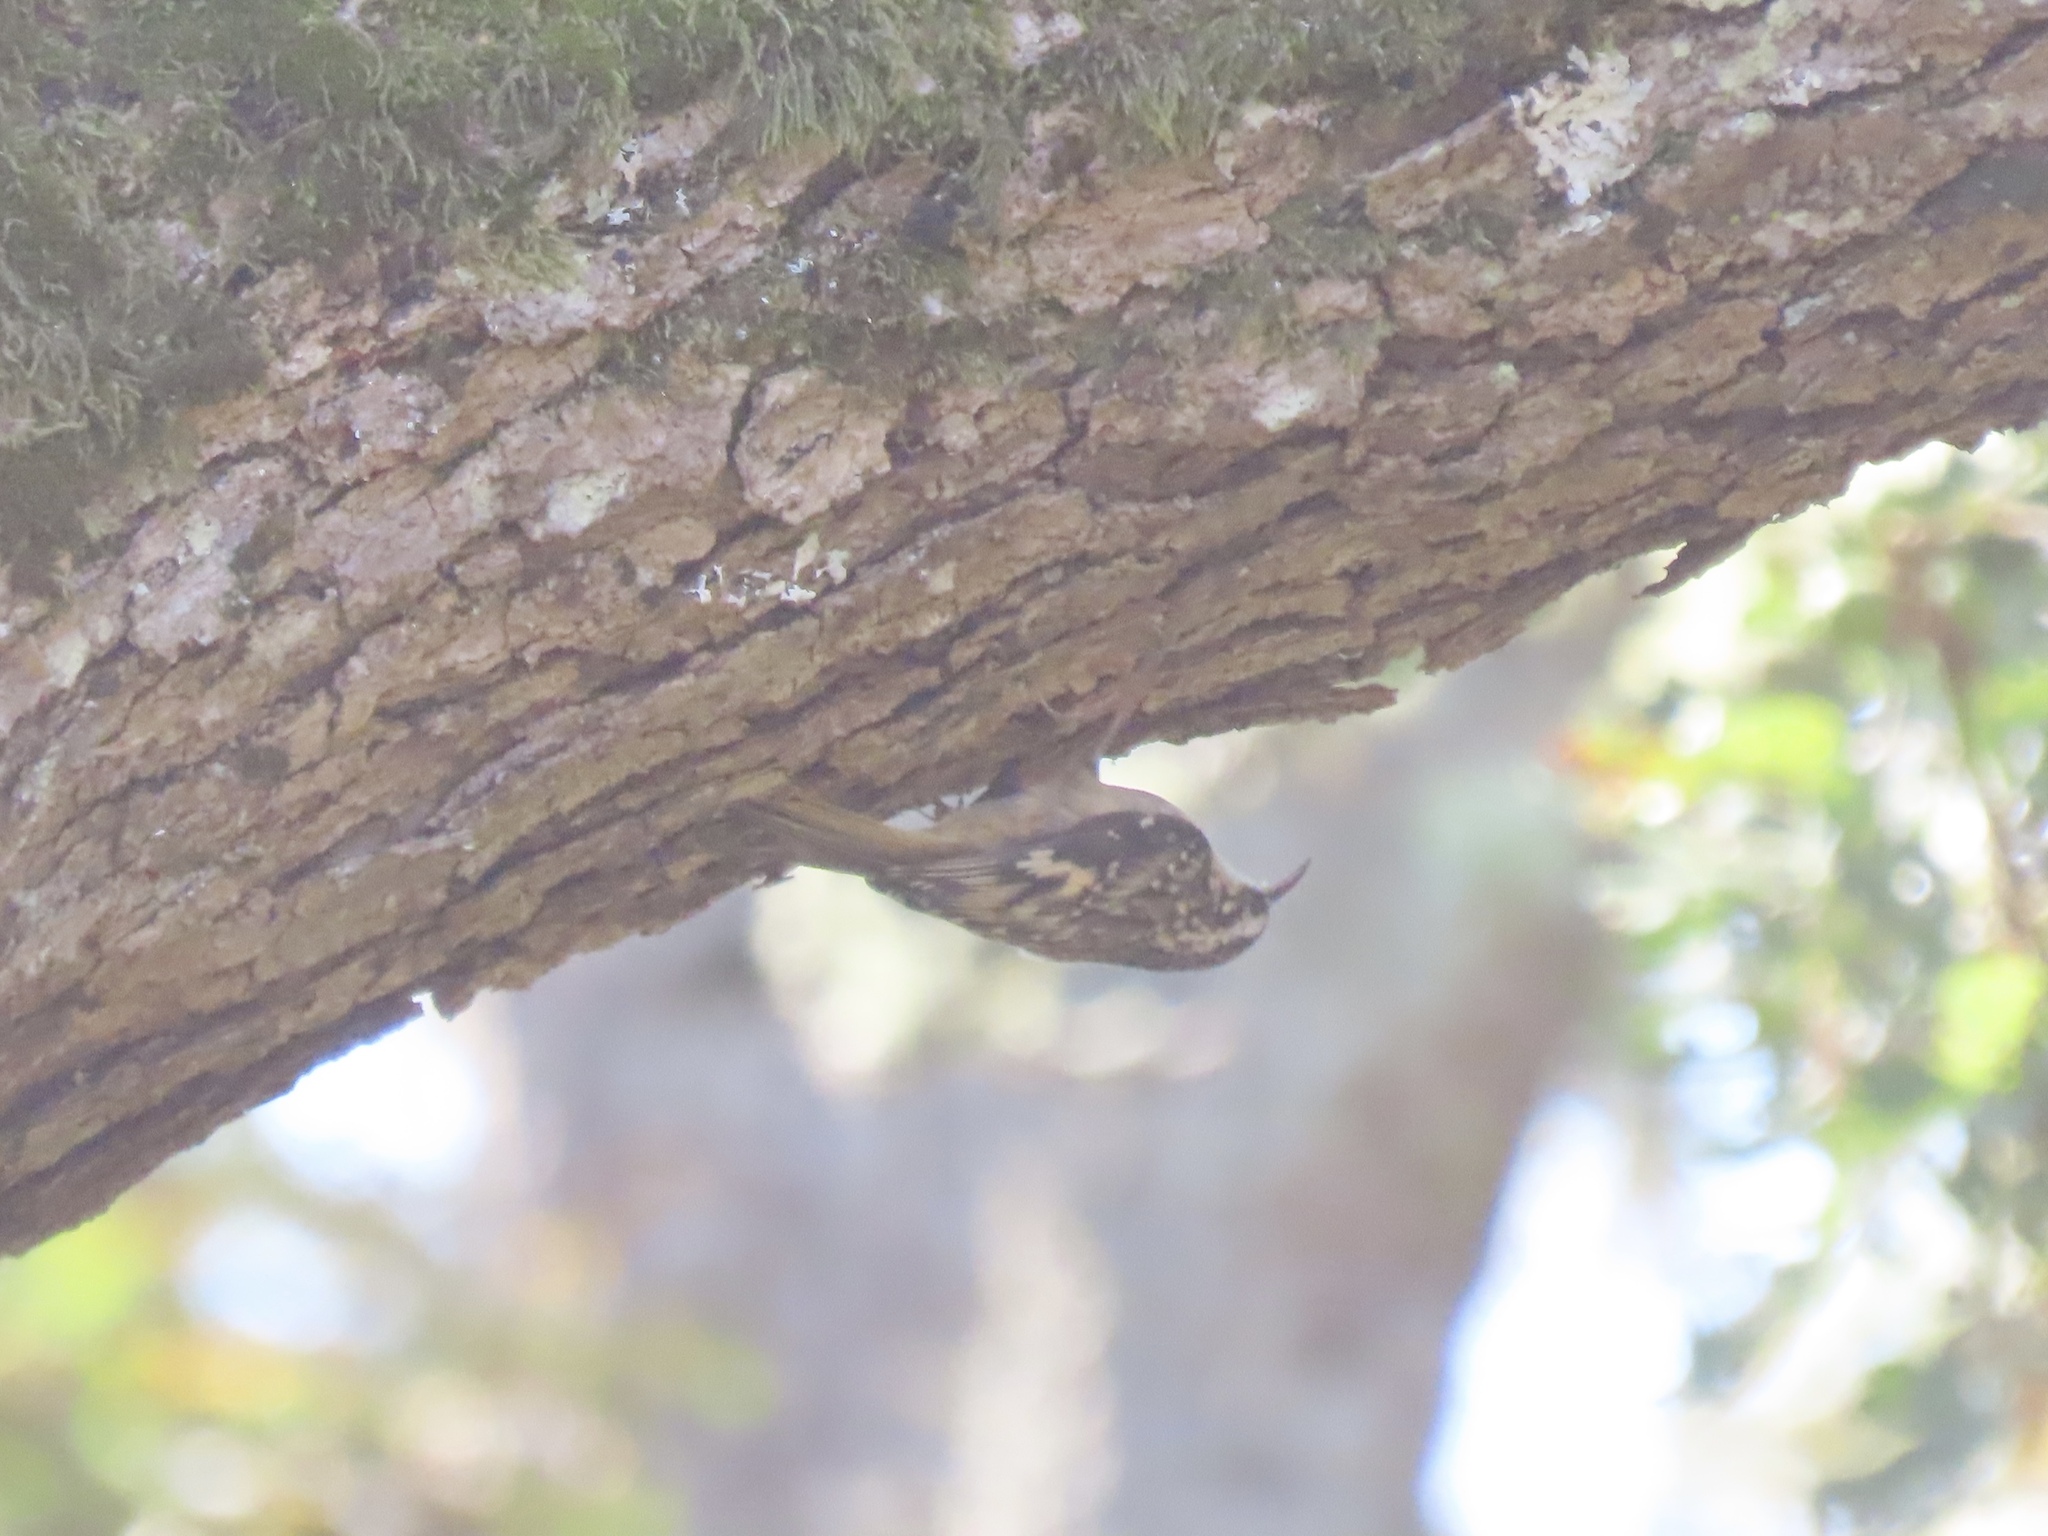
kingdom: Animalia
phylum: Chordata
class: Aves
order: Passeriformes
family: Certhiidae
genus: Certhia
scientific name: Certhia americana
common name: Brown creeper
